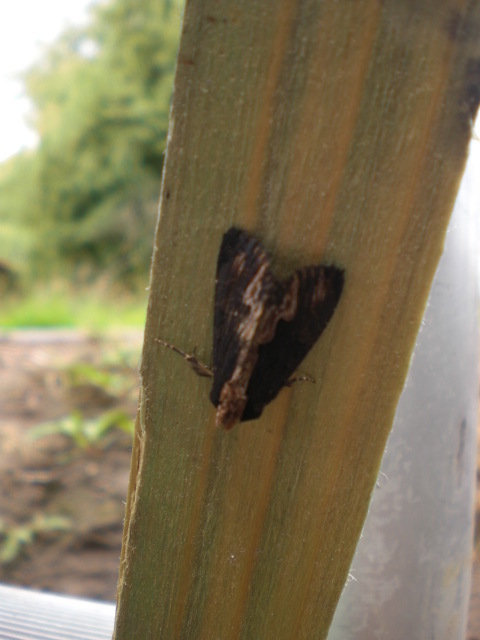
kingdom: Animalia
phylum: Arthropoda
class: Insecta
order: Lepidoptera
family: Noctuidae
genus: Dypterygia
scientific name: Dypterygia scabriuscula
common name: Bird's wing
